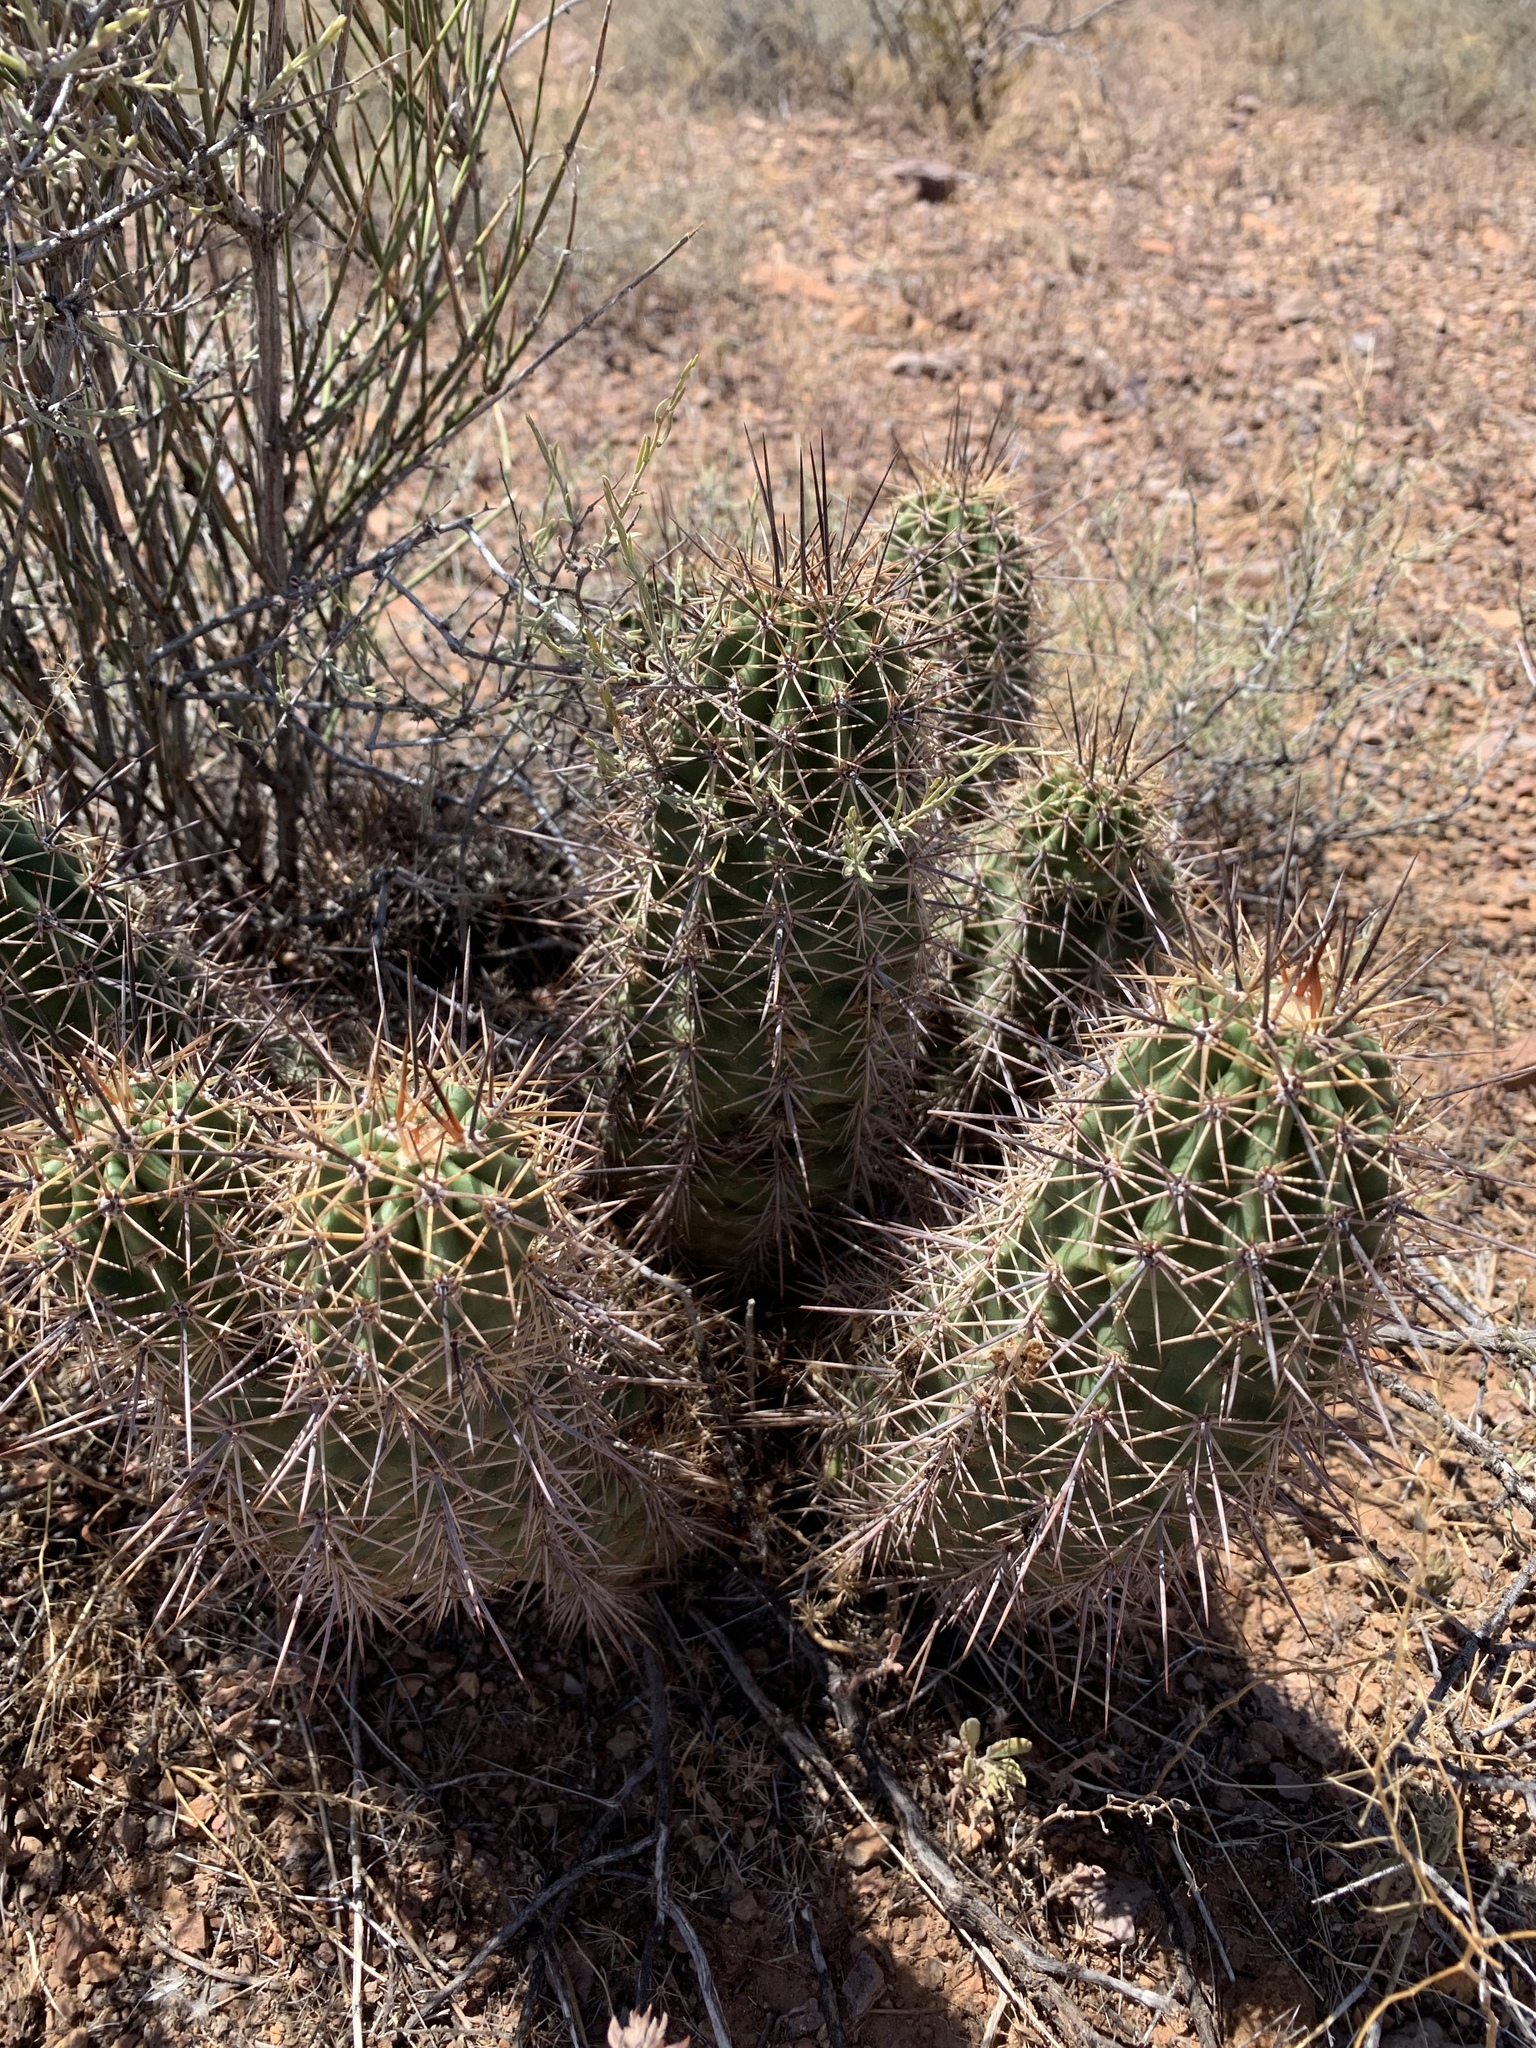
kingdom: Plantae
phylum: Tracheophyta
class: Magnoliopsida
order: Caryophyllales
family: Cactaceae
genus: Echinocereus
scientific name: Echinocereus coccineus
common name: Scarlet hedgehog cactus
